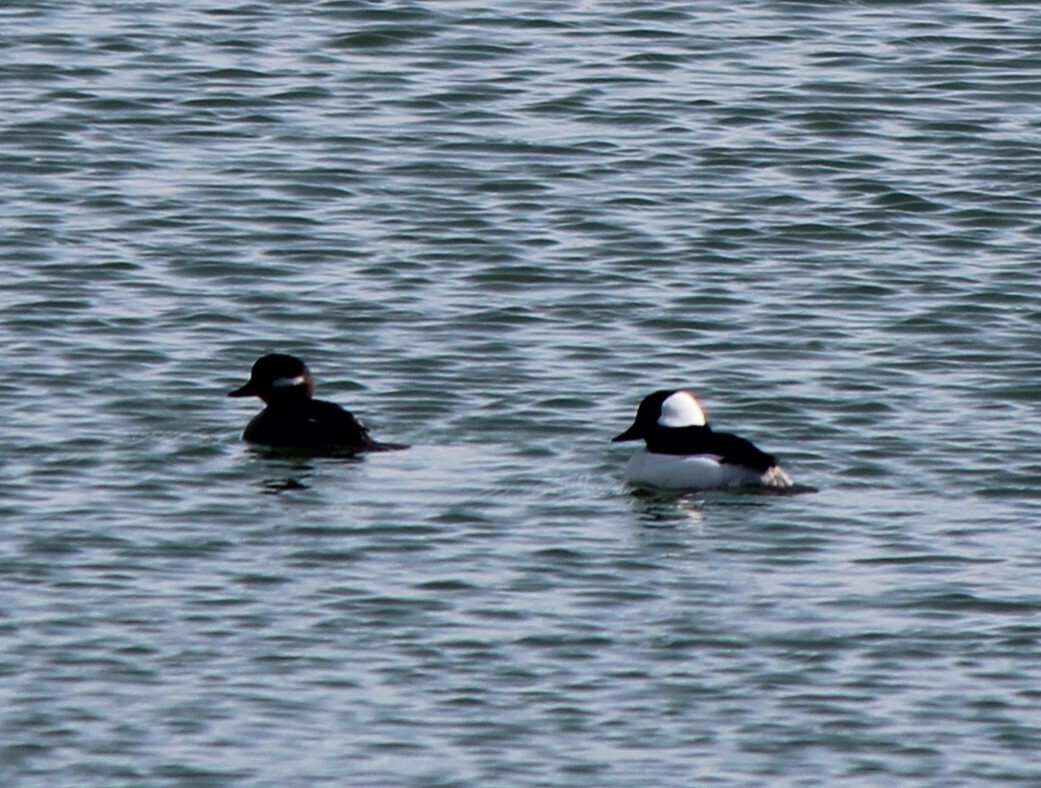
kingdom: Animalia
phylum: Chordata
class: Aves
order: Anseriformes
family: Anatidae
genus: Bucephala
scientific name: Bucephala albeola
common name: Bufflehead
